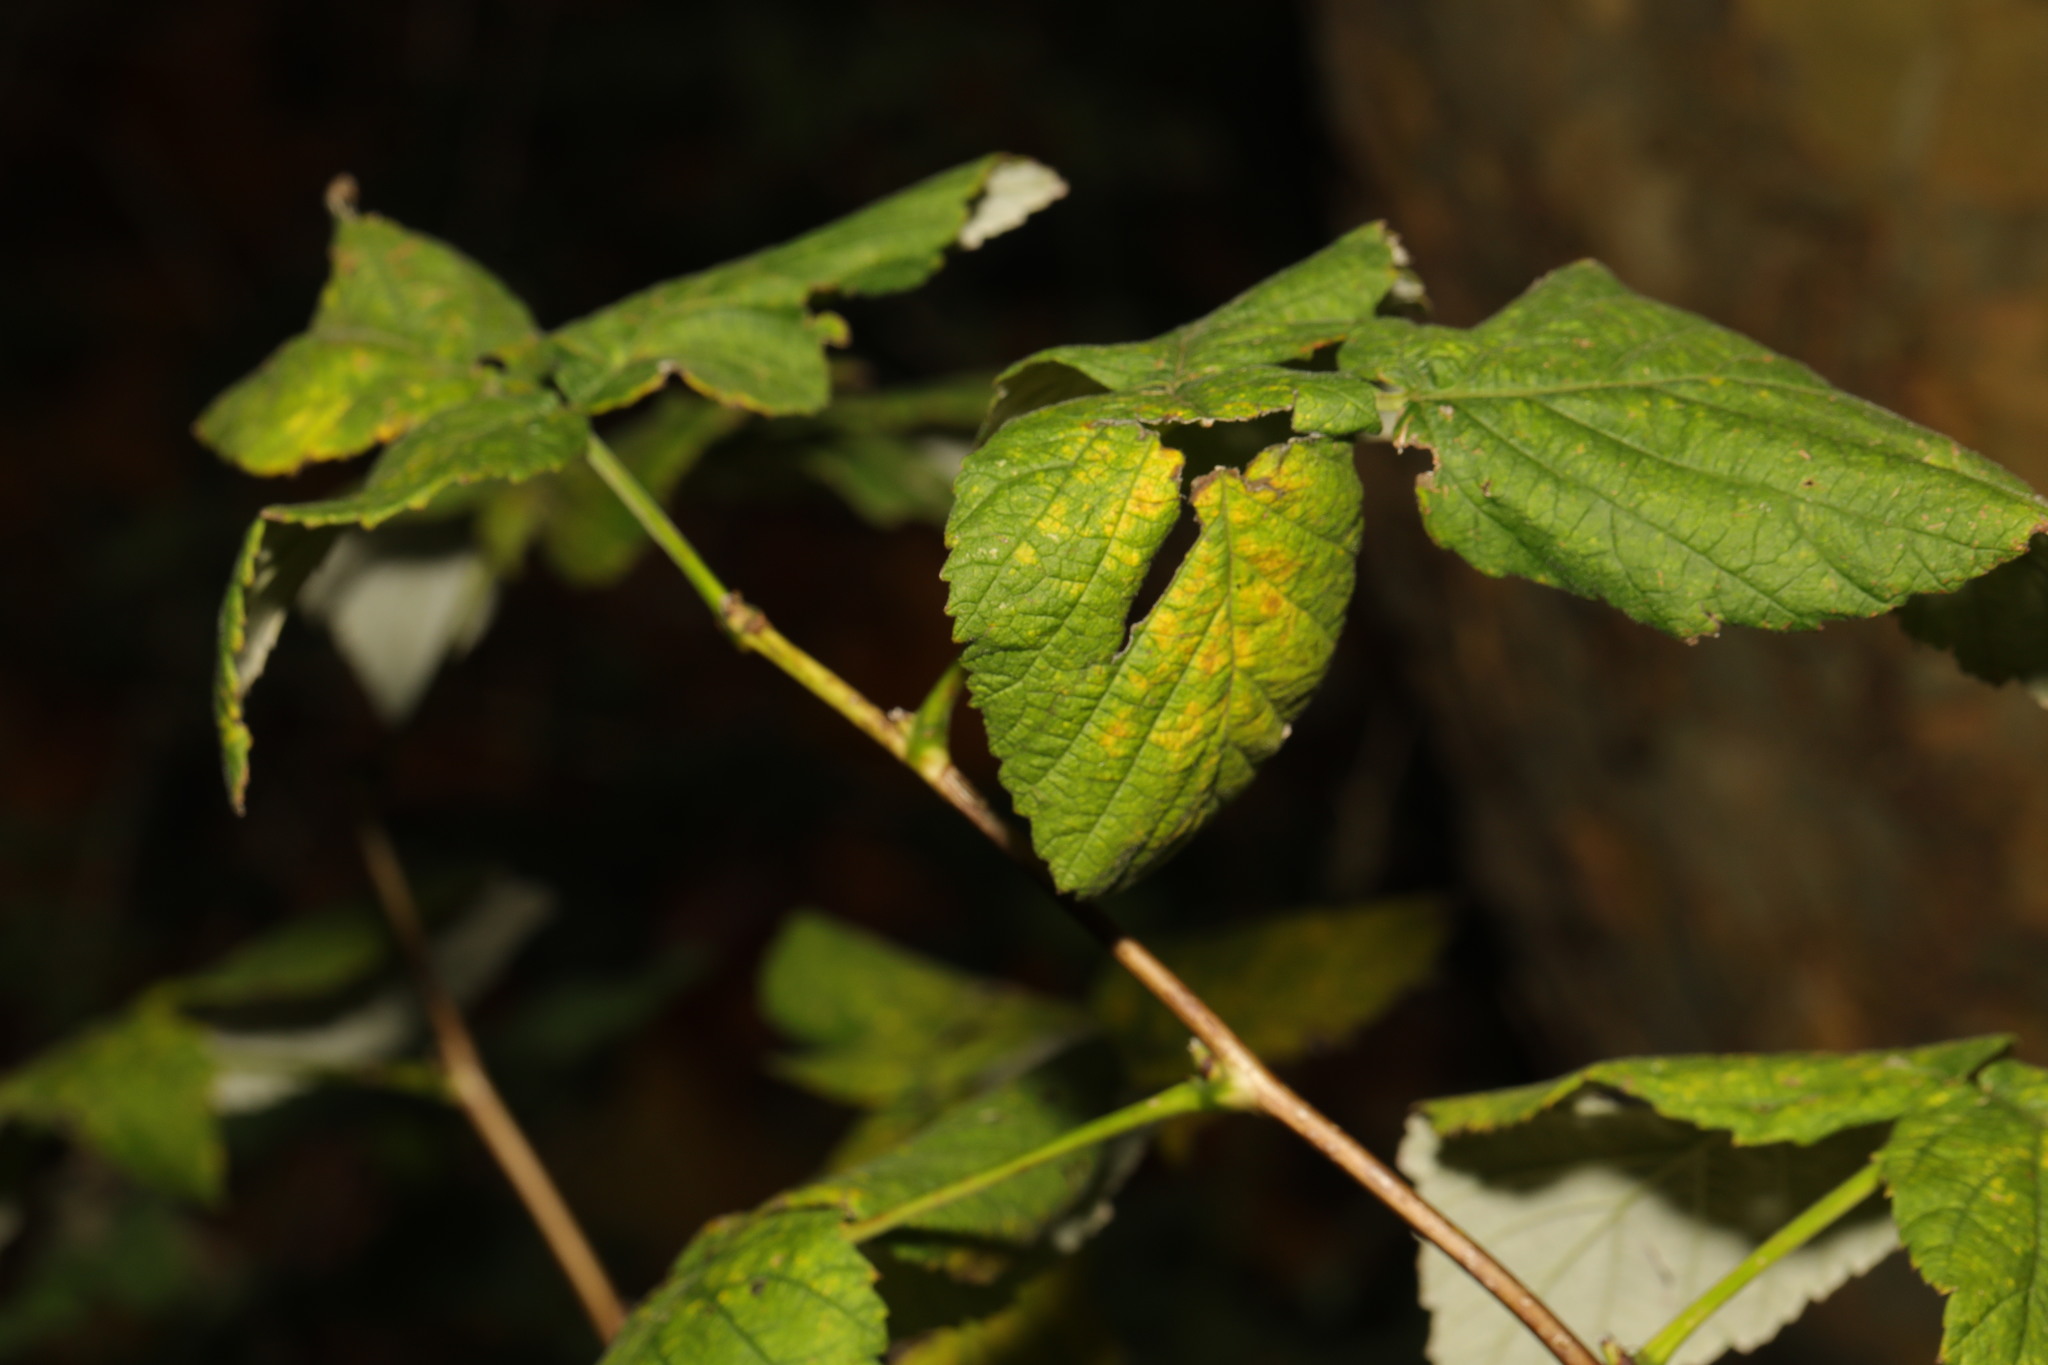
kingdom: Plantae
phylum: Tracheophyta
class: Magnoliopsida
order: Rosales
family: Rosaceae
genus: Rubus
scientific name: Rubus idaeus
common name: Raspberry
